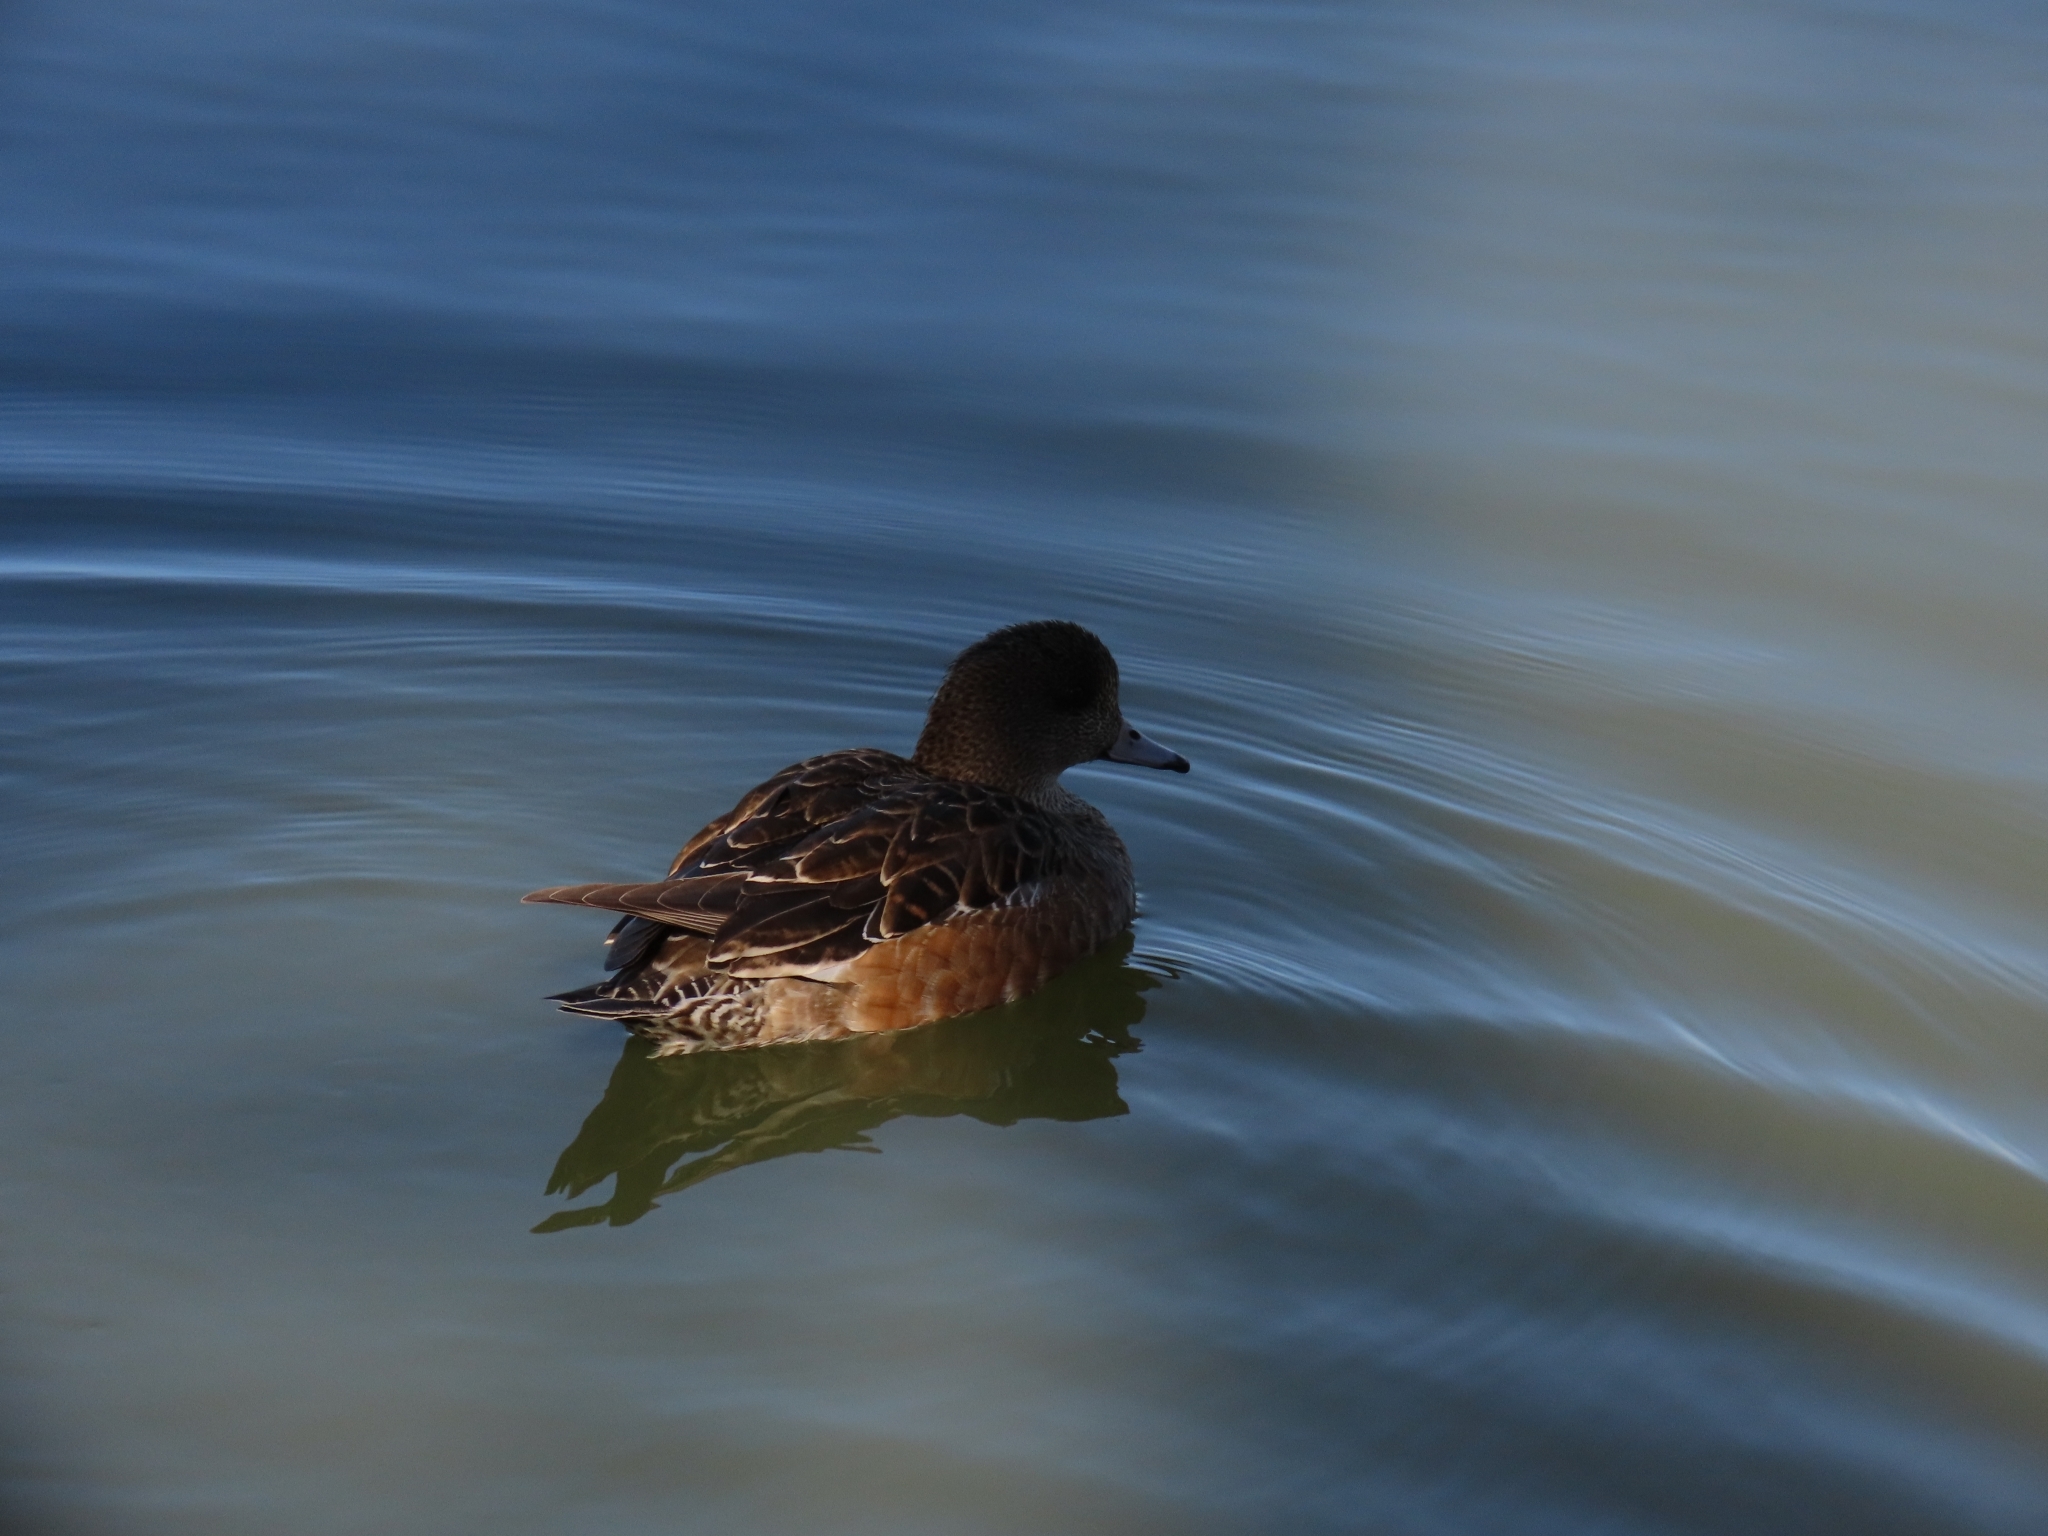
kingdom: Animalia
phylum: Chordata
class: Aves
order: Anseriformes
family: Anatidae
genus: Mareca
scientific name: Mareca americana
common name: American wigeon
